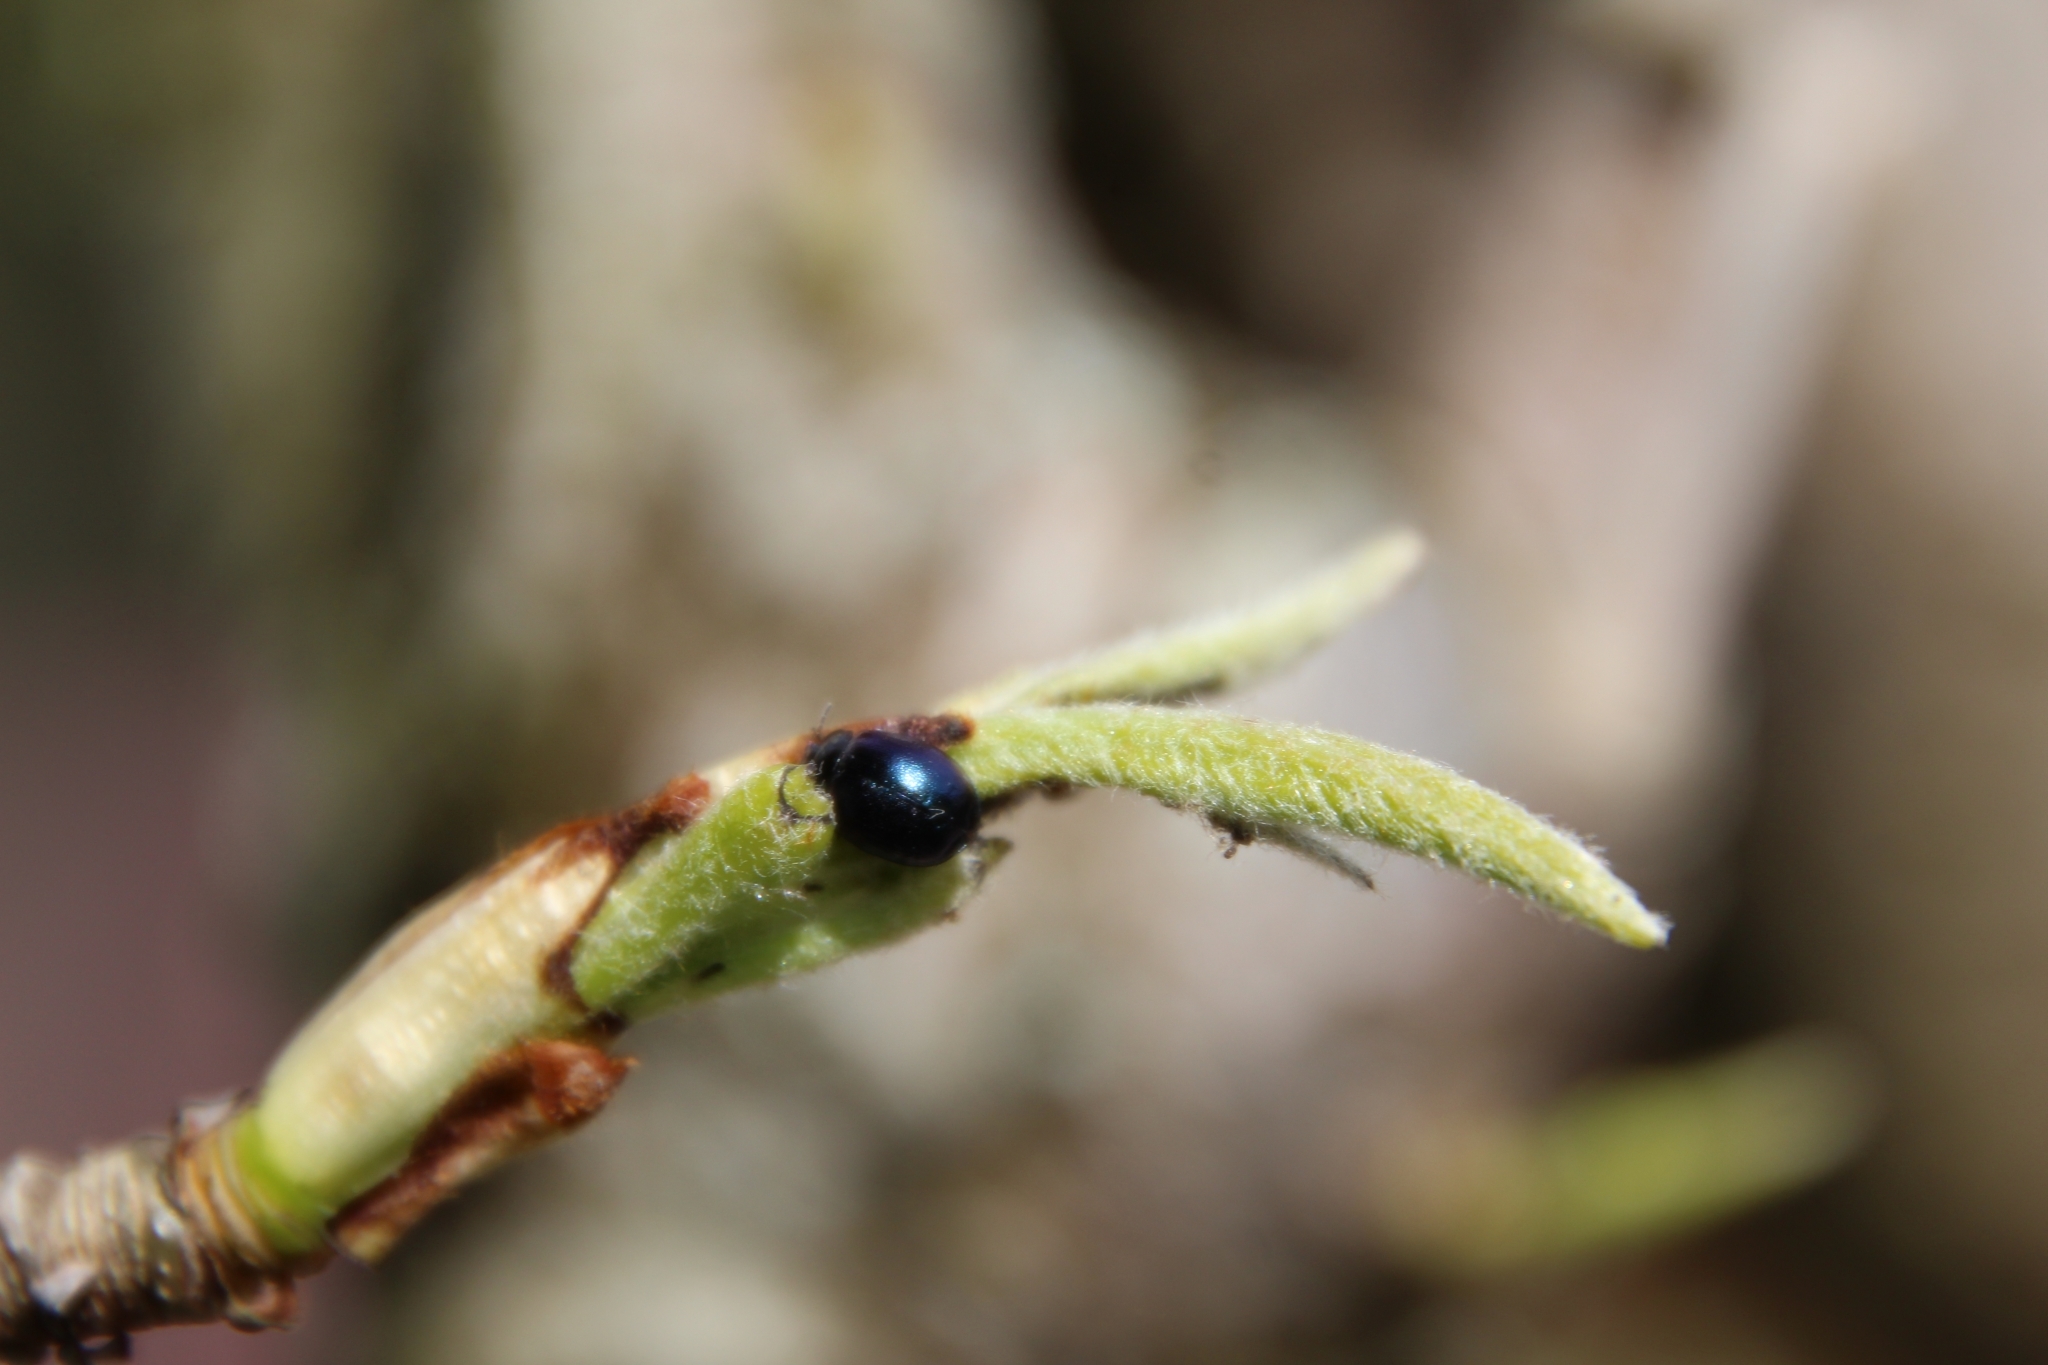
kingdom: Animalia
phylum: Arthropoda
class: Insecta
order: Coleoptera
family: Chrysomelidae
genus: Plagiodera
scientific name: Plagiodera versicolora
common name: Imported willow leaf beetle
